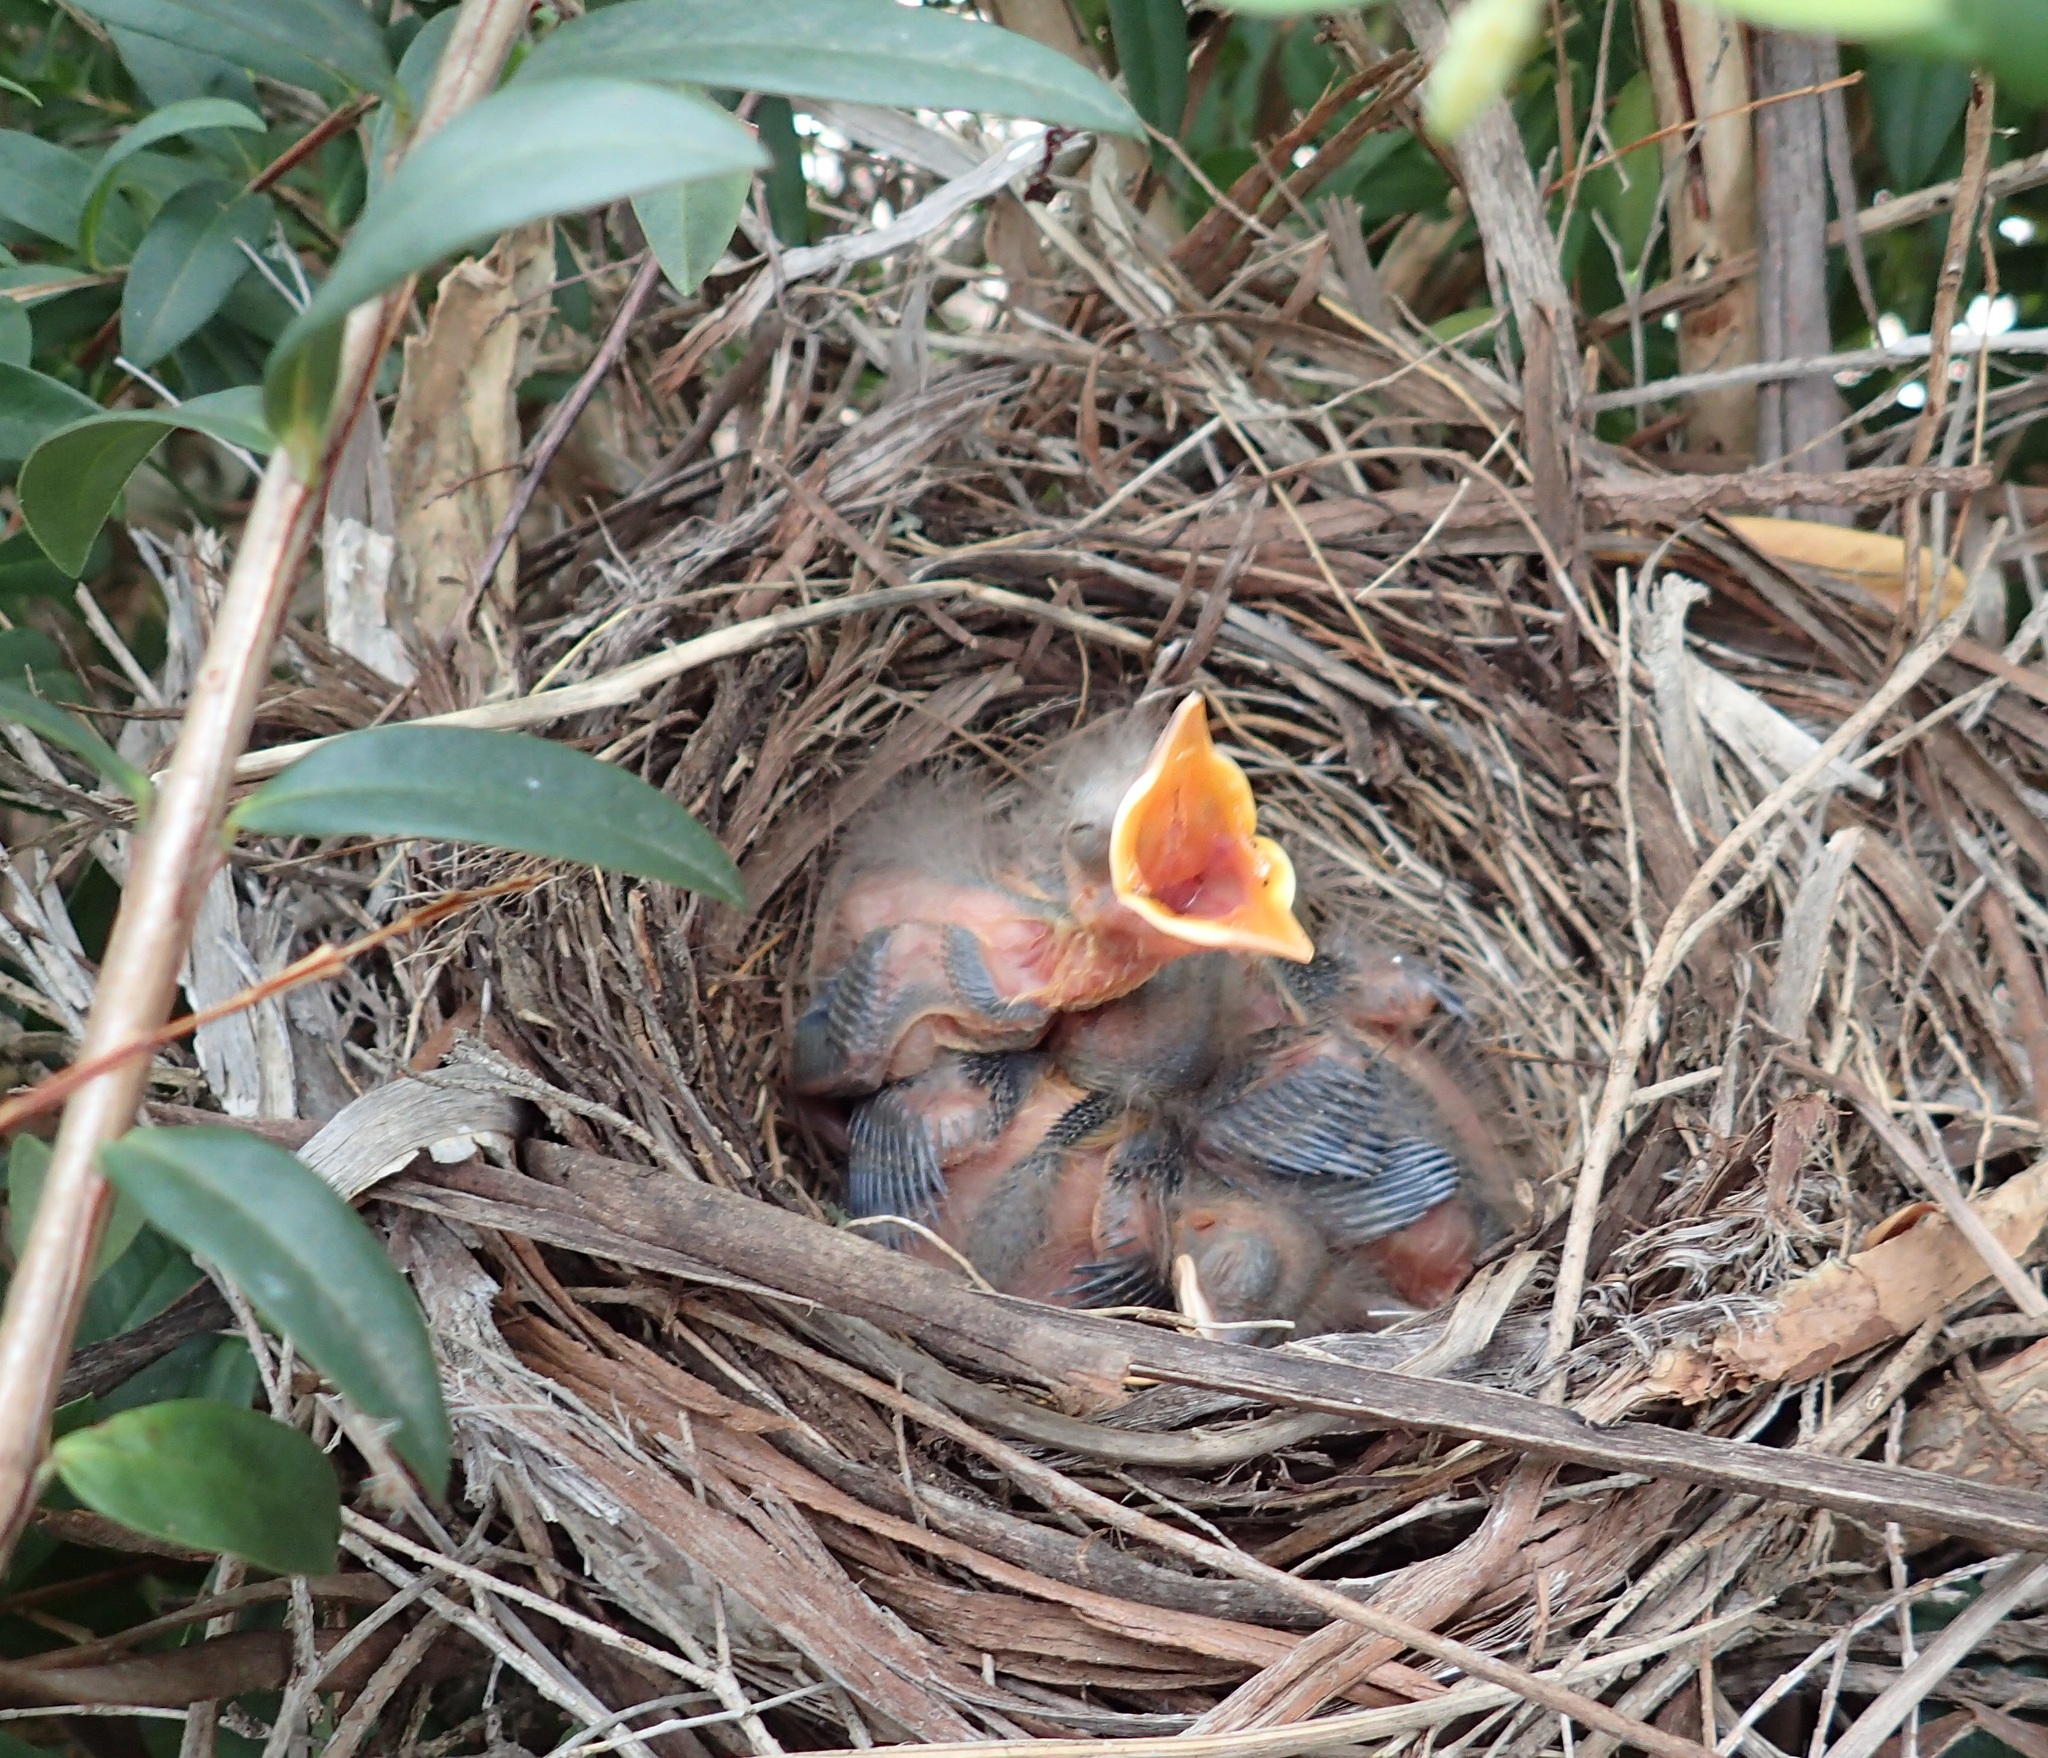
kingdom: Animalia
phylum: Chordata
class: Aves
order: Passeriformes
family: Turdidae
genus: Turdus
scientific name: Turdus merula
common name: Common blackbird
